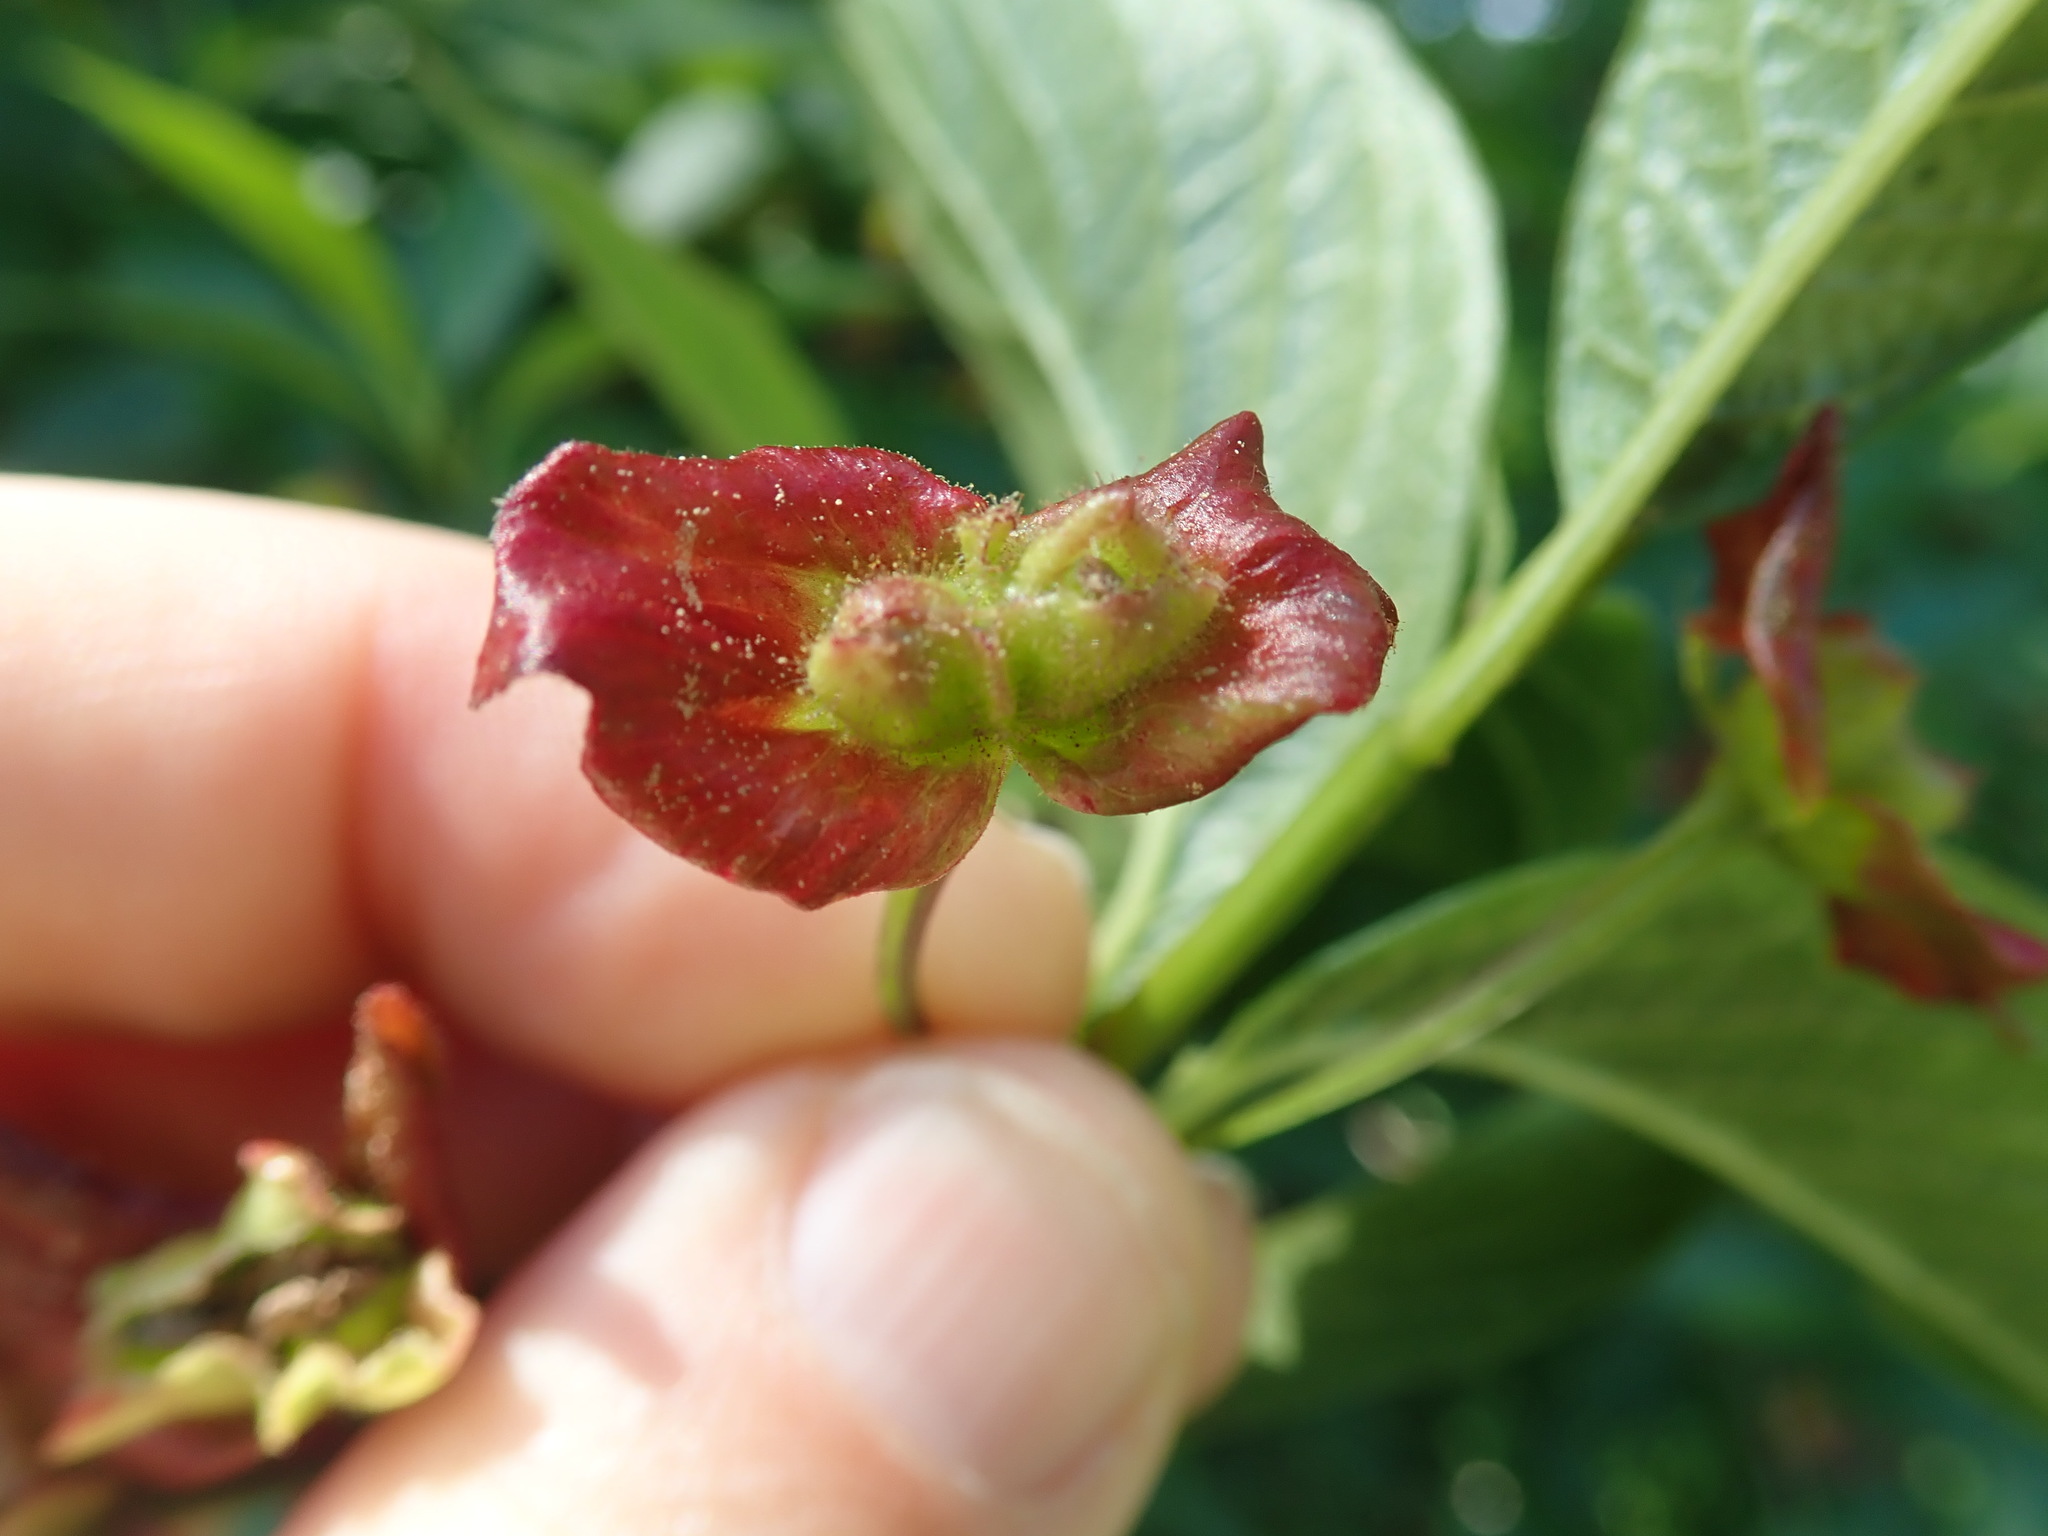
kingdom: Plantae
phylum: Tracheophyta
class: Magnoliopsida
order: Dipsacales
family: Caprifoliaceae
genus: Lonicera
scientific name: Lonicera involucrata
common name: Californian honeysuckle
